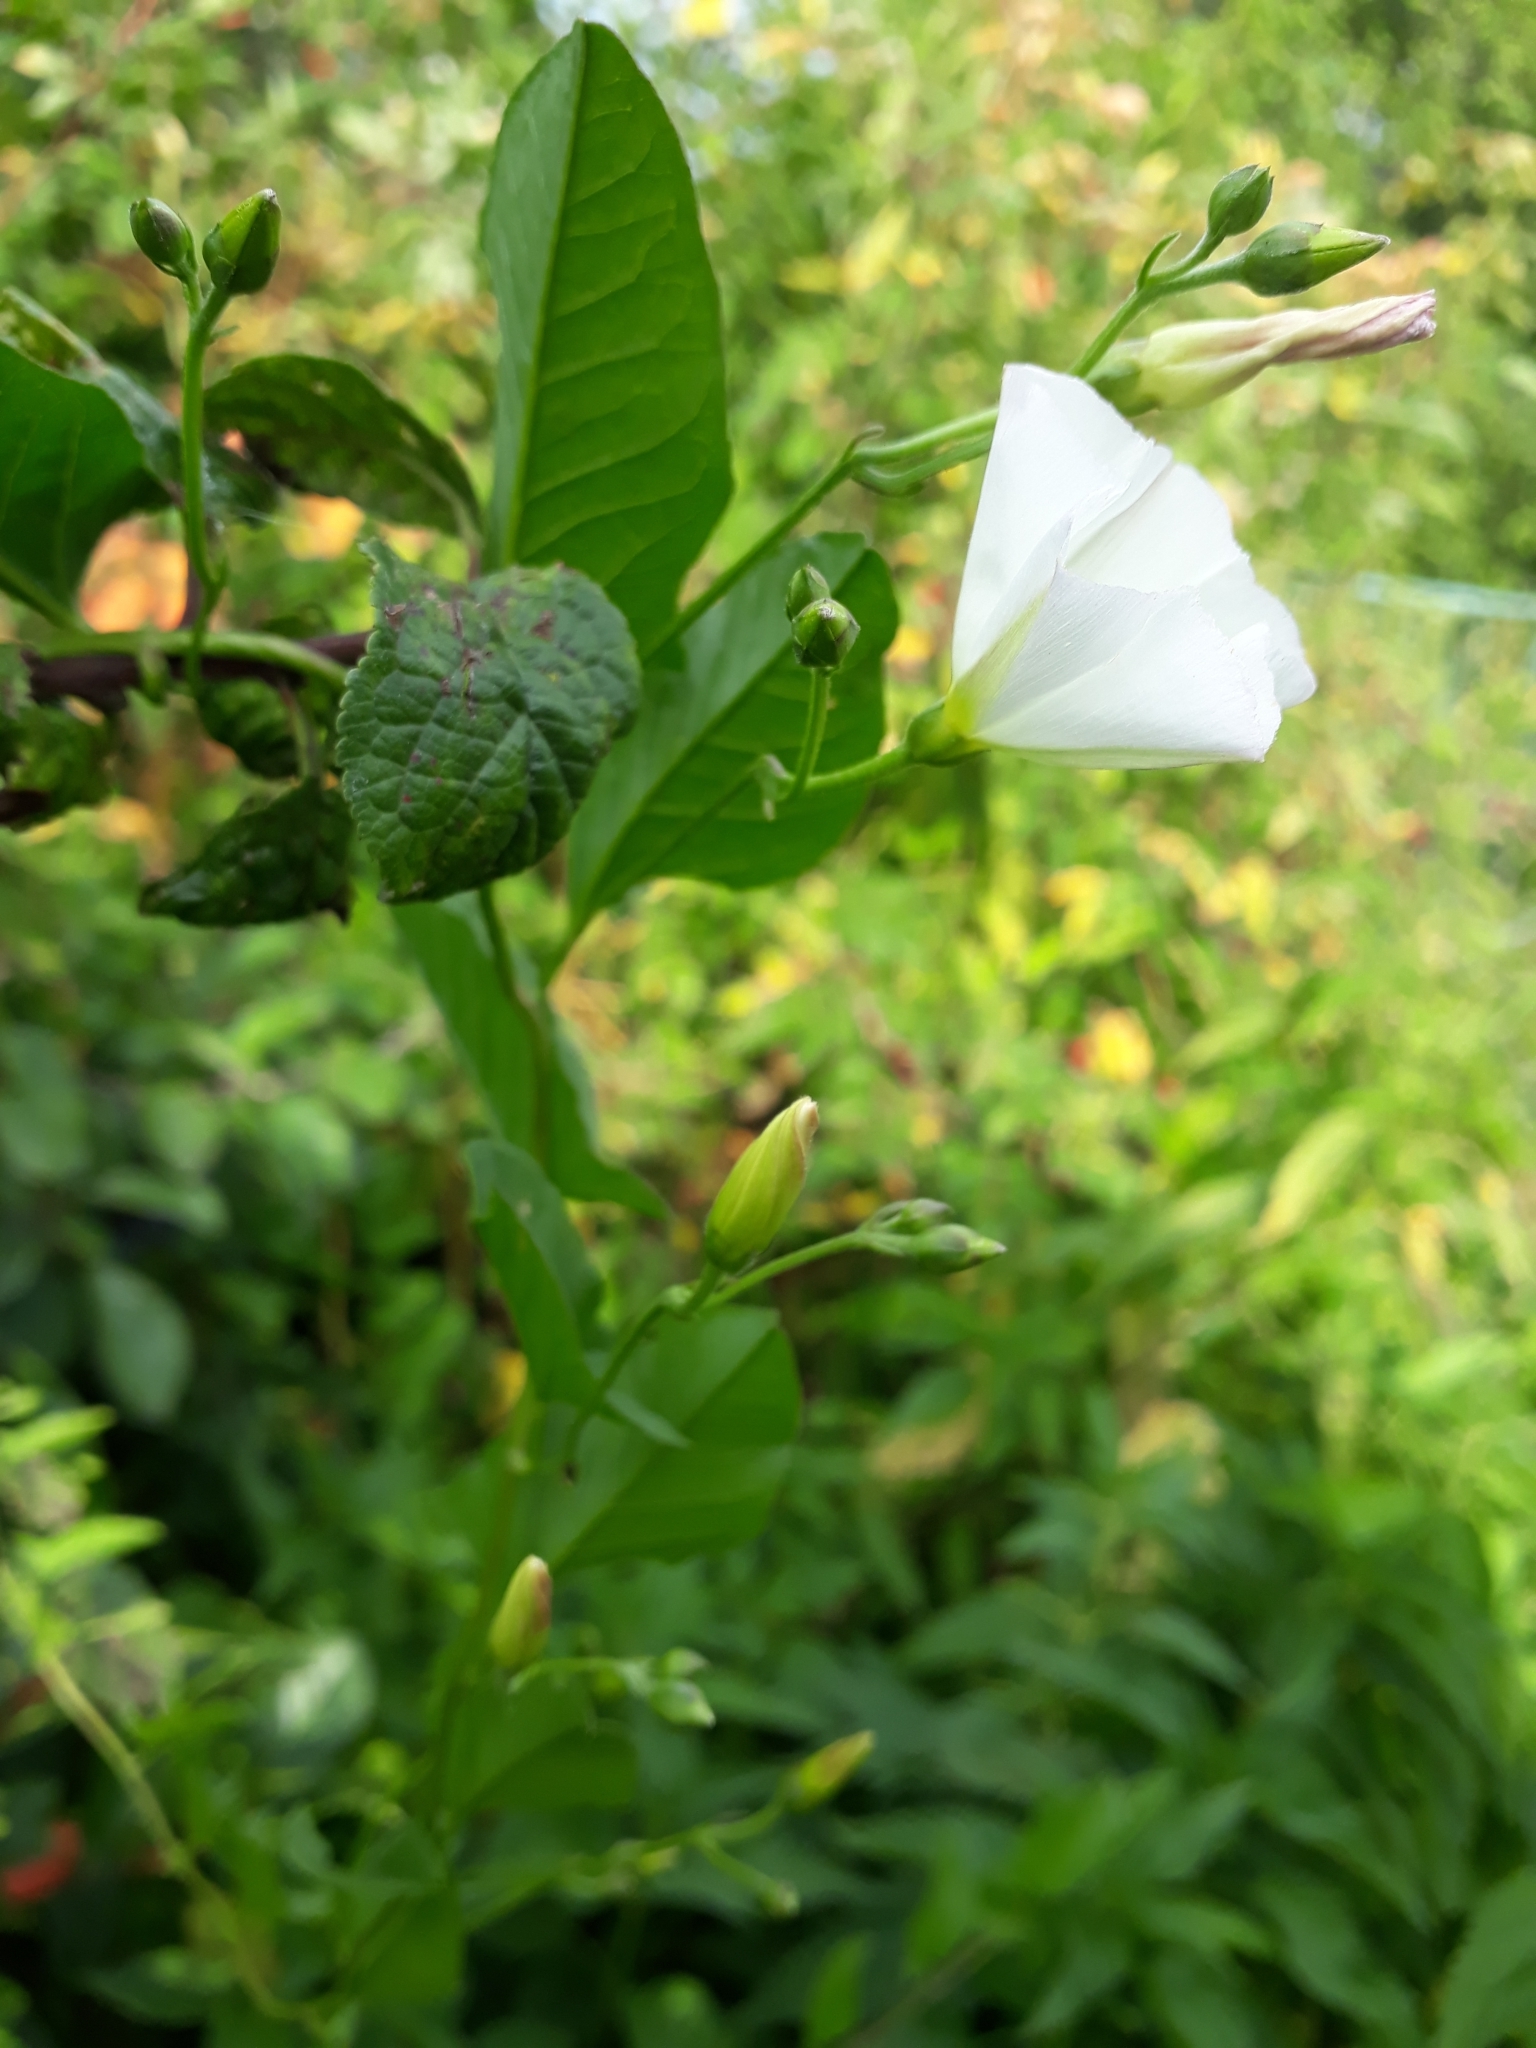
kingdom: Plantae
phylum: Tracheophyta
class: Magnoliopsida
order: Solanales
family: Convolvulaceae
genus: Convolvulus
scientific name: Convolvulus arvensis
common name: Field bindweed
